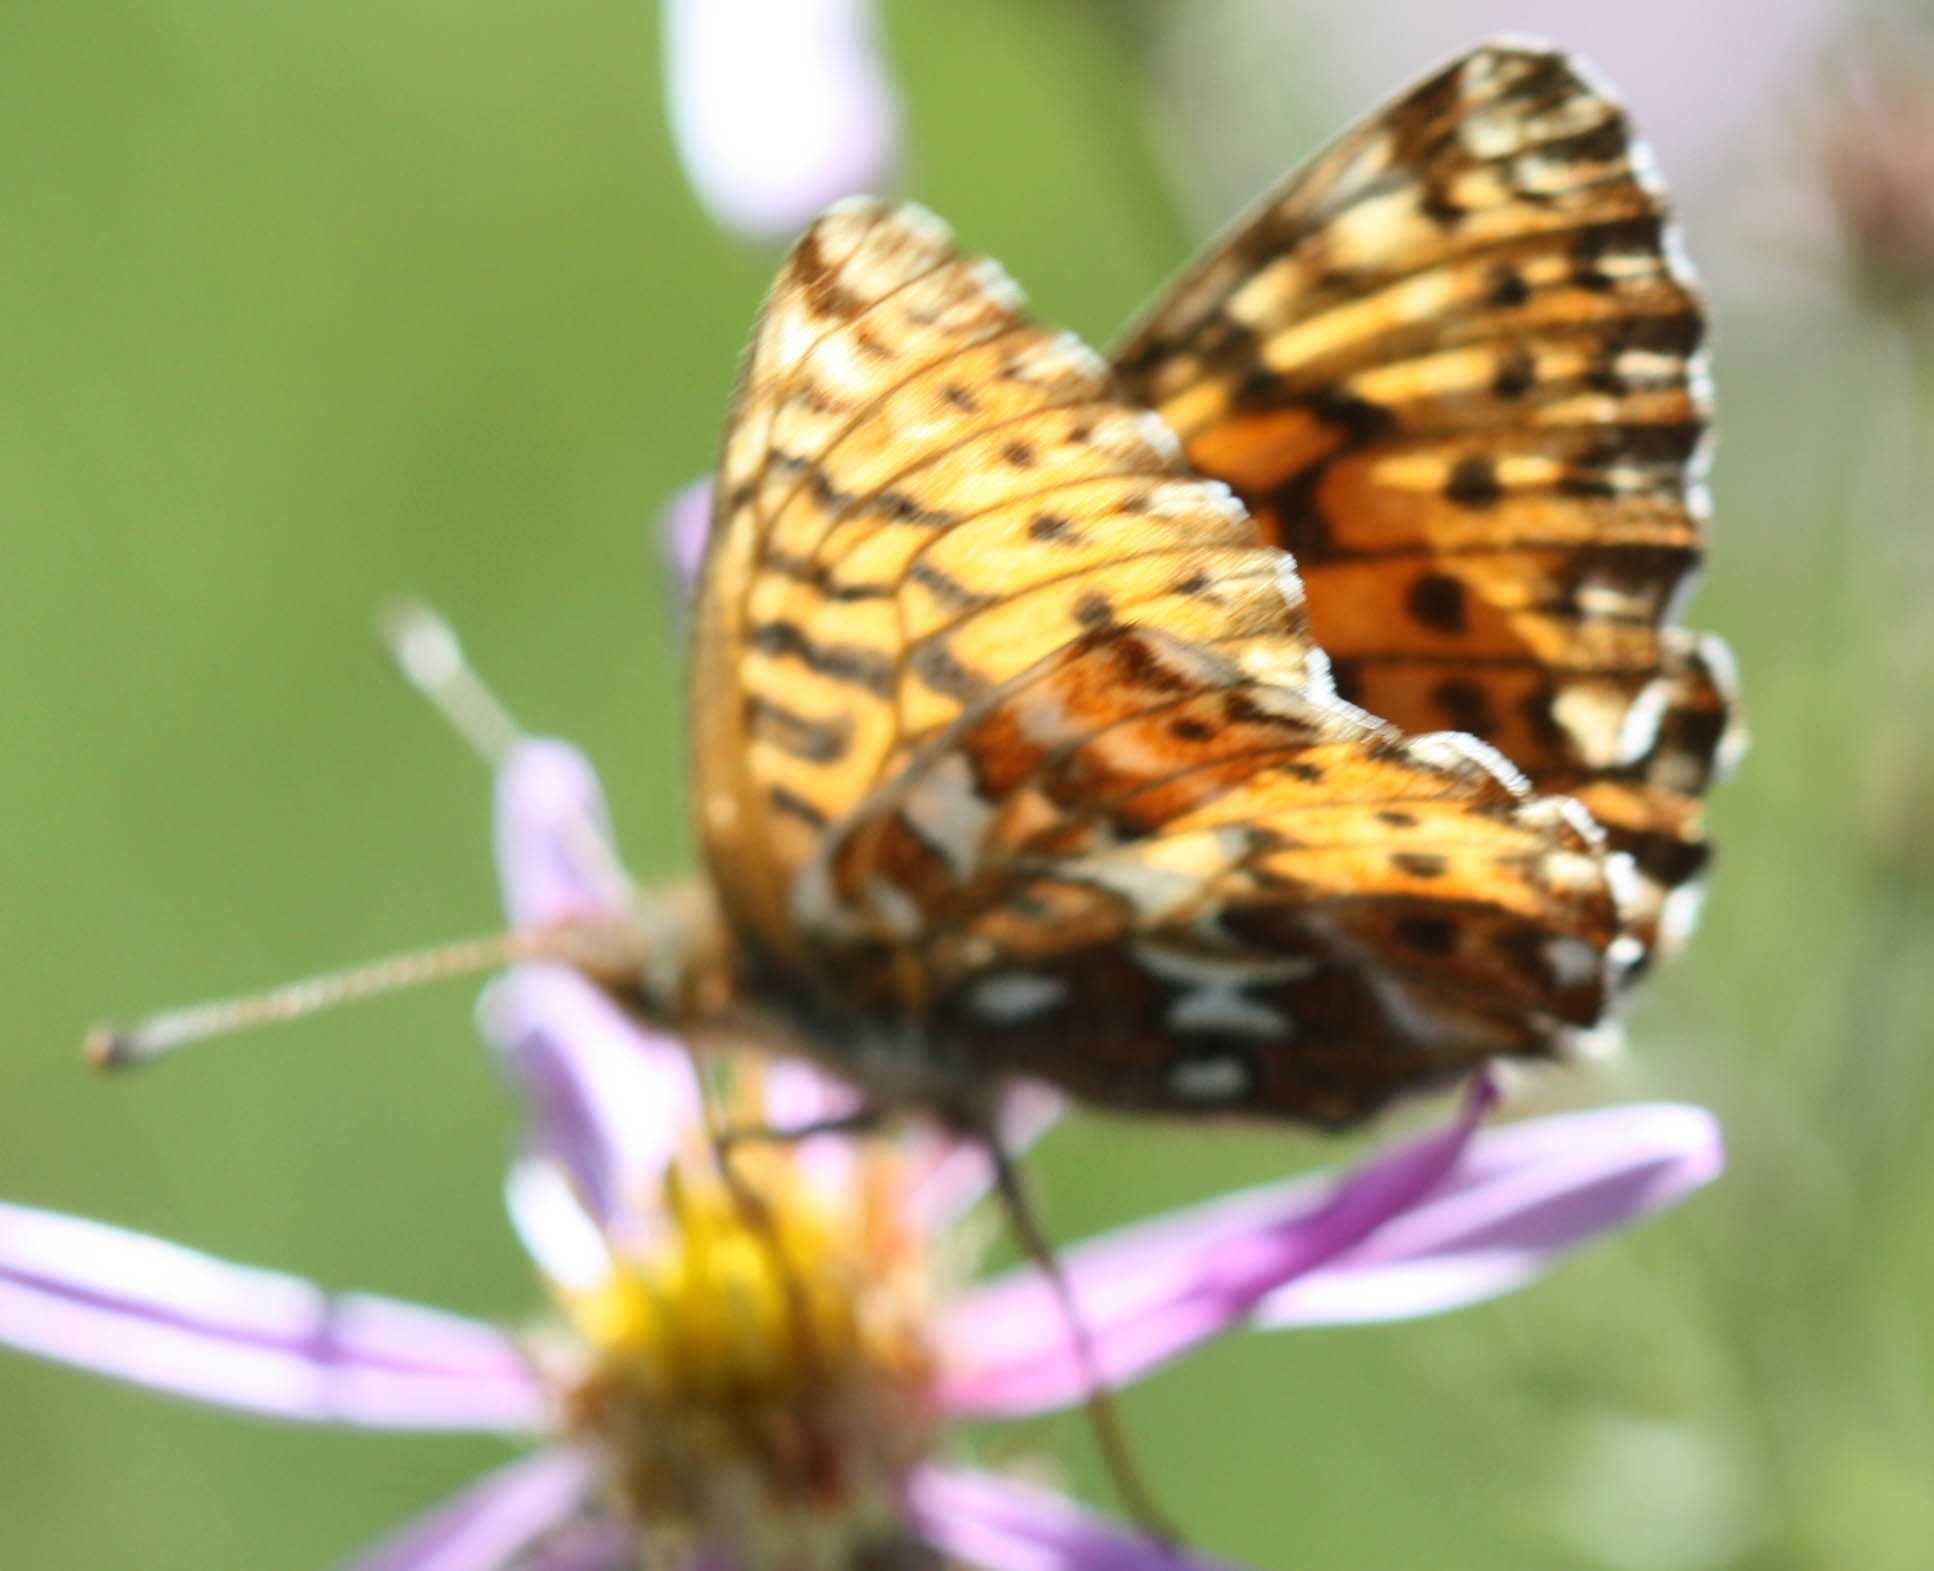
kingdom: Animalia
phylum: Arthropoda
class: Insecta
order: Lepidoptera
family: Nymphalidae
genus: Boloria
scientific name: Boloria chariclea
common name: Arctic fritillary
